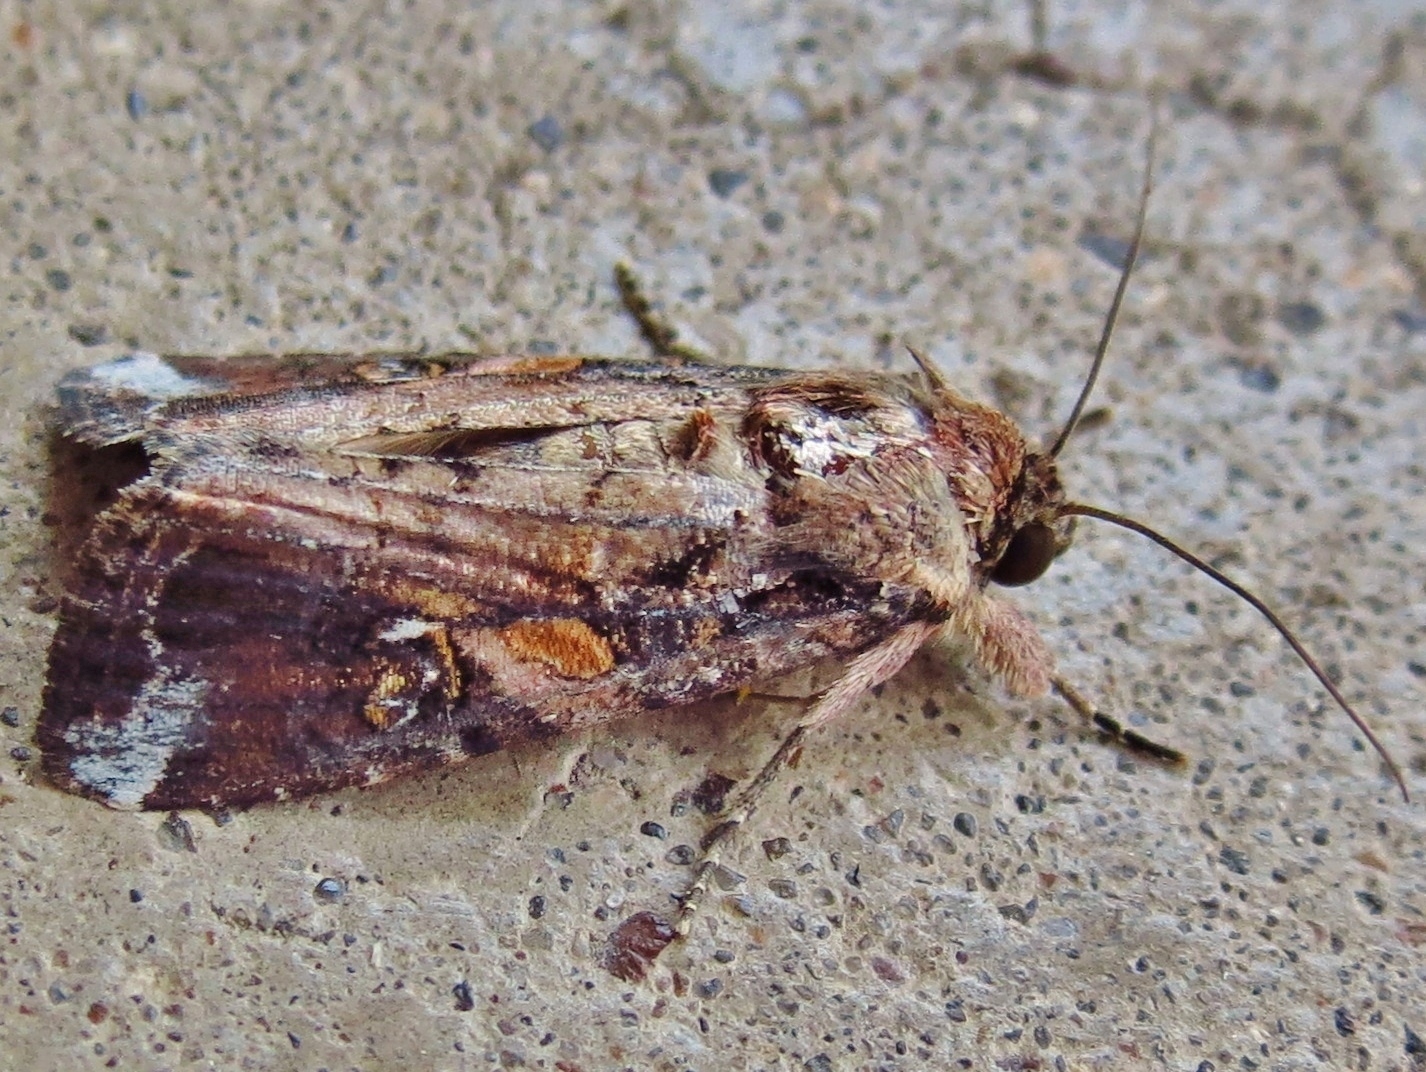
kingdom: Animalia
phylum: Arthropoda
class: Insecta
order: Lepidoptera
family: Noctuidae
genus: Spodoptera
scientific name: Spodoptera frugiperda
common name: Fall armyworm
